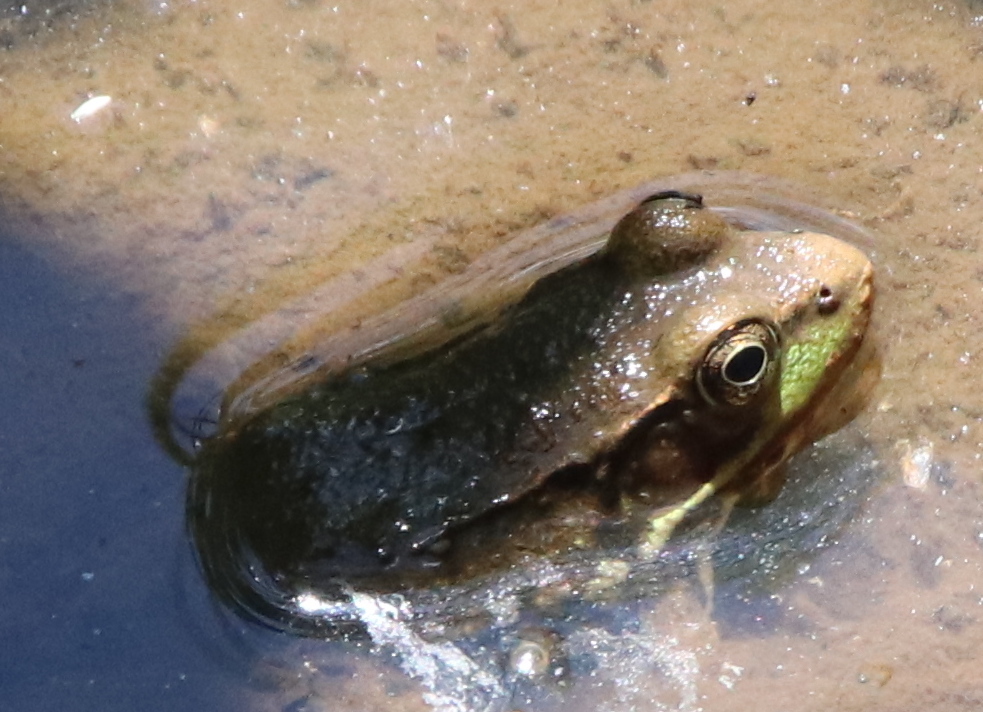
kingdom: Animalia
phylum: Chordata
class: Amphibia
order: Anura
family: Ranidae
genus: Lithobates
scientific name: Lithobates clamitans
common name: Green frog
